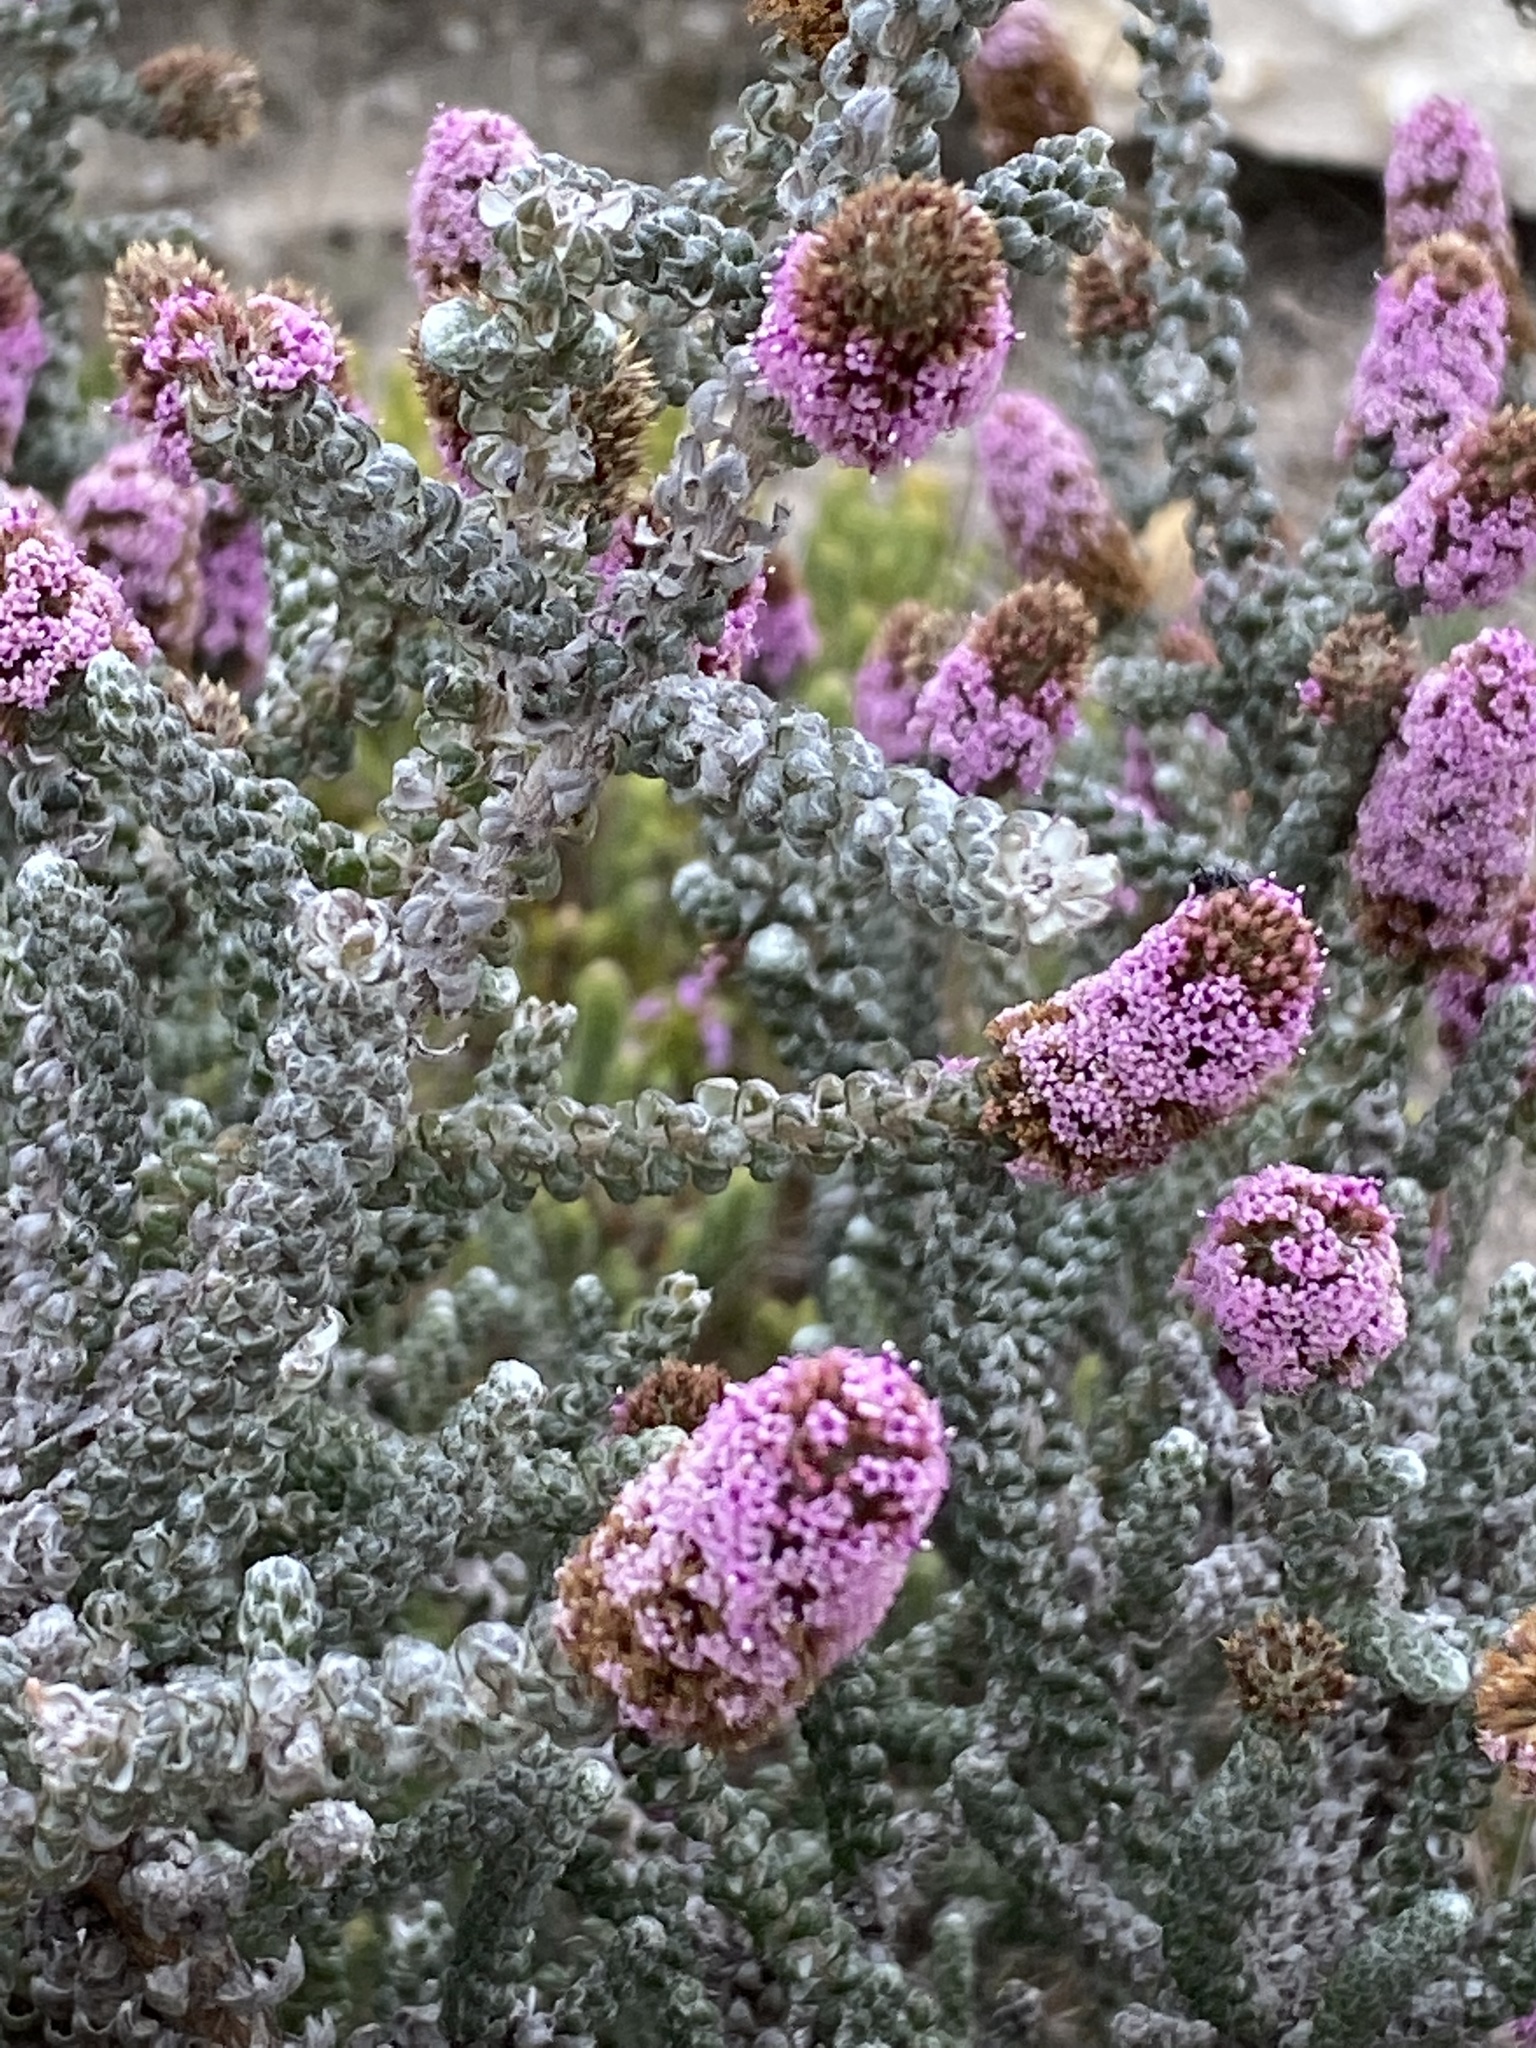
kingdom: Plantae
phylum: Tracheophyta
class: Magnoliopsida
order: Asterales
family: Asteraceae
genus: Stoebe
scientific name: Stoebe muirii
